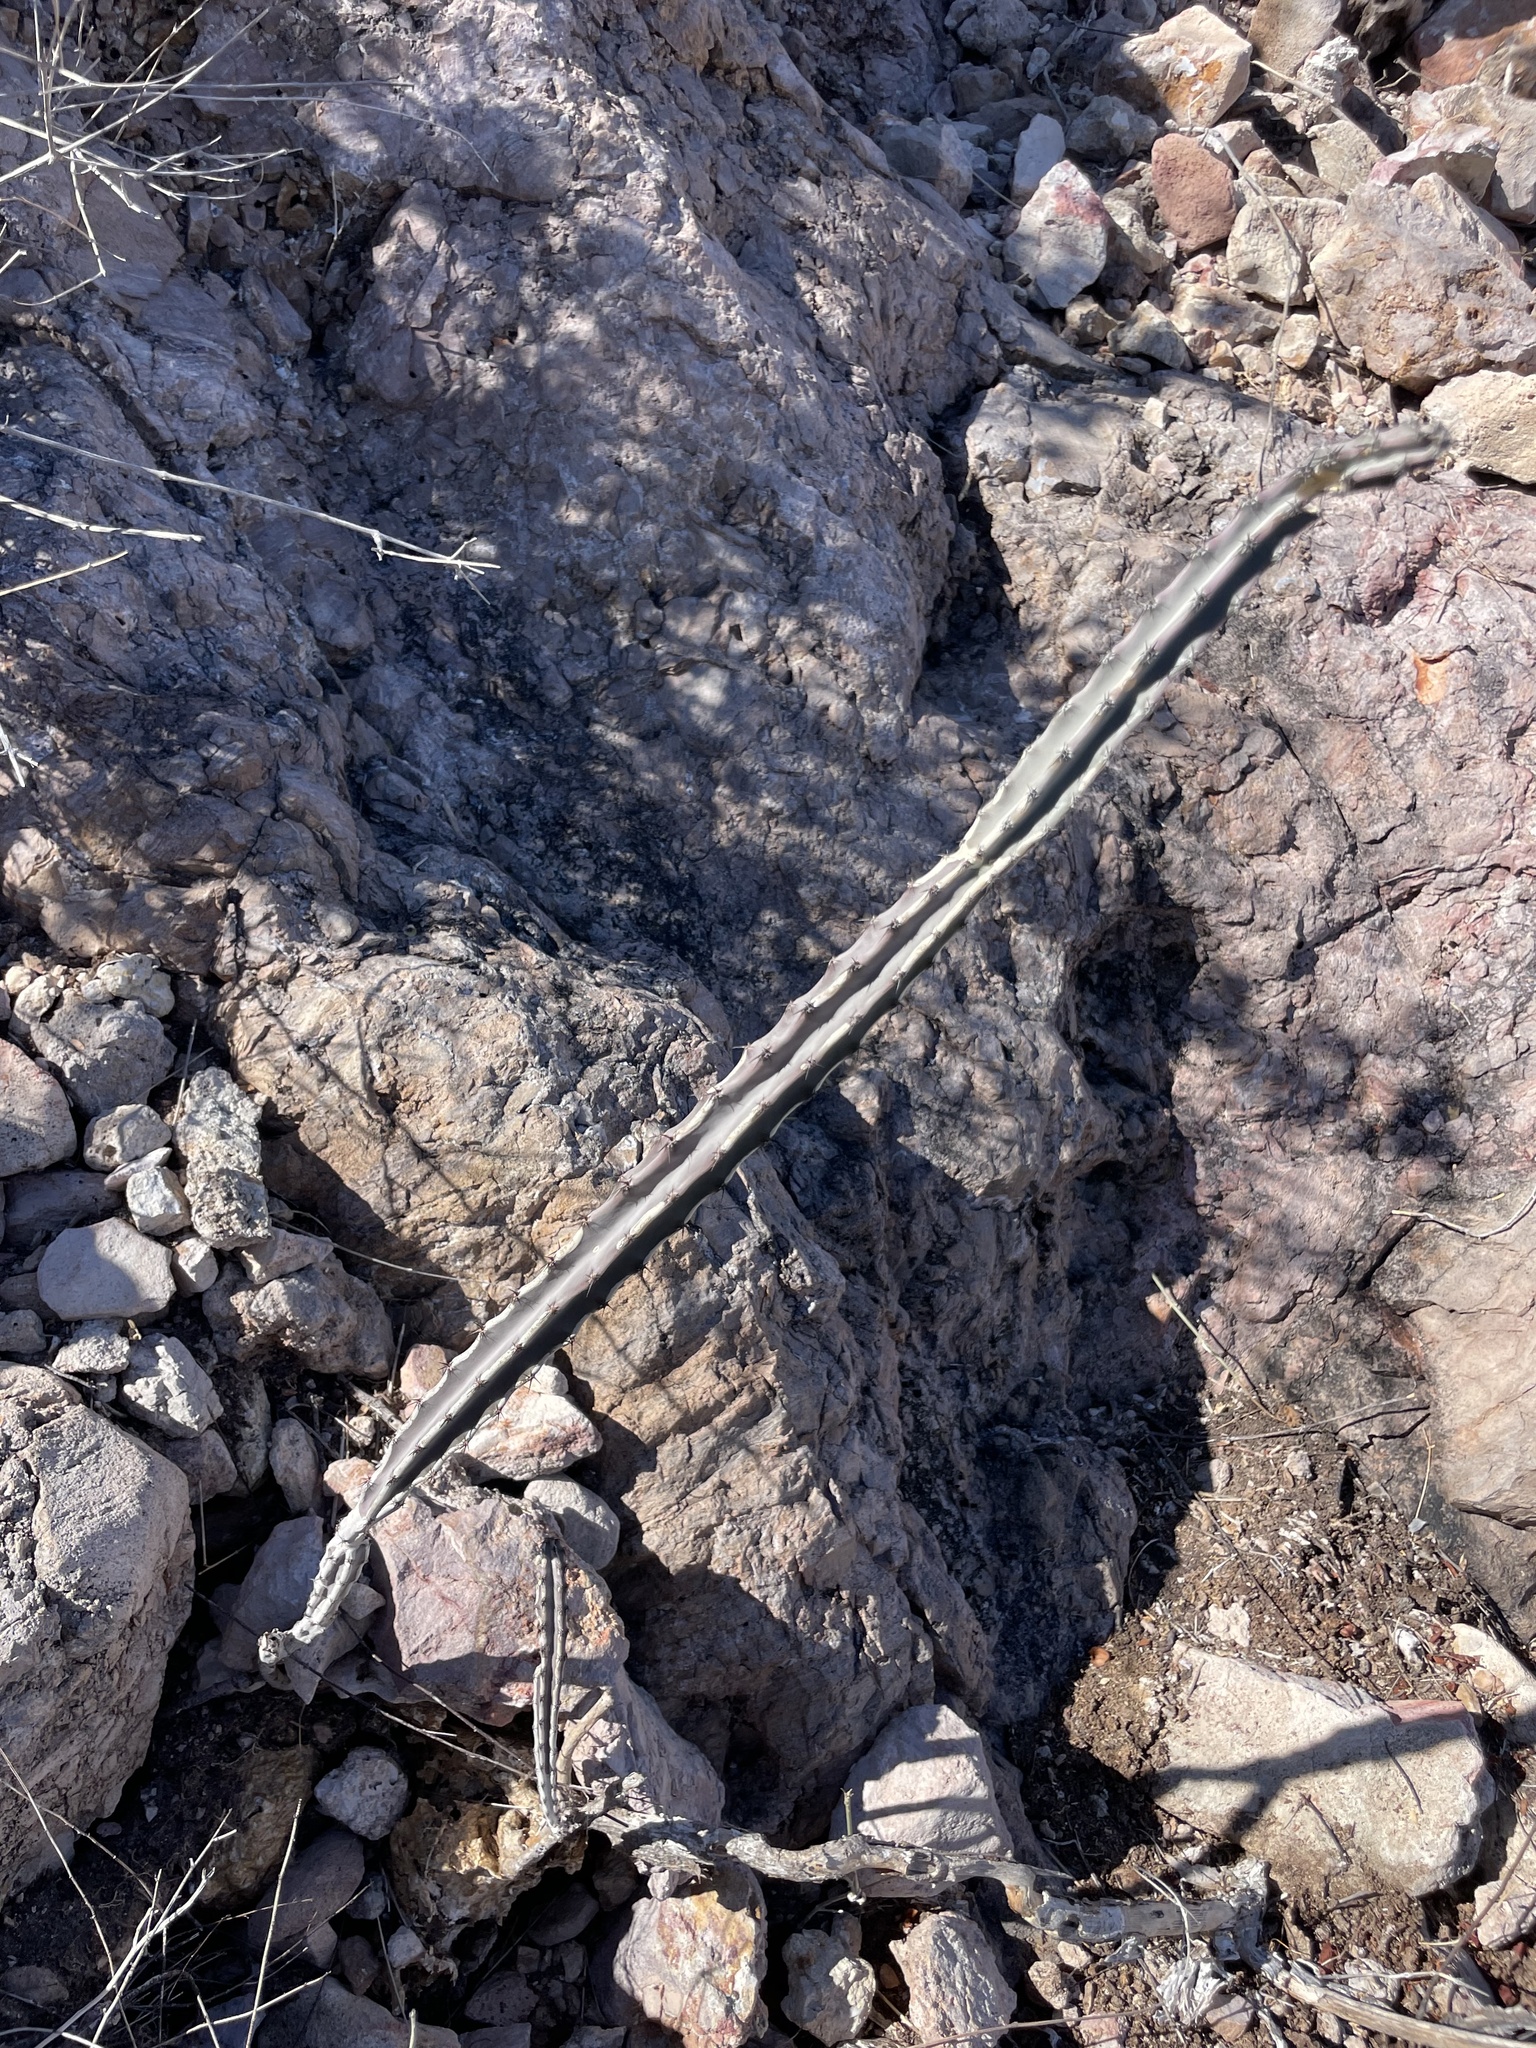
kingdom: Plantae
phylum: Tracheophyta
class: Magnoliopsida
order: Caryophyllales
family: Cactaceae
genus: Peniocereus
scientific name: Peniocereus johnstonii
